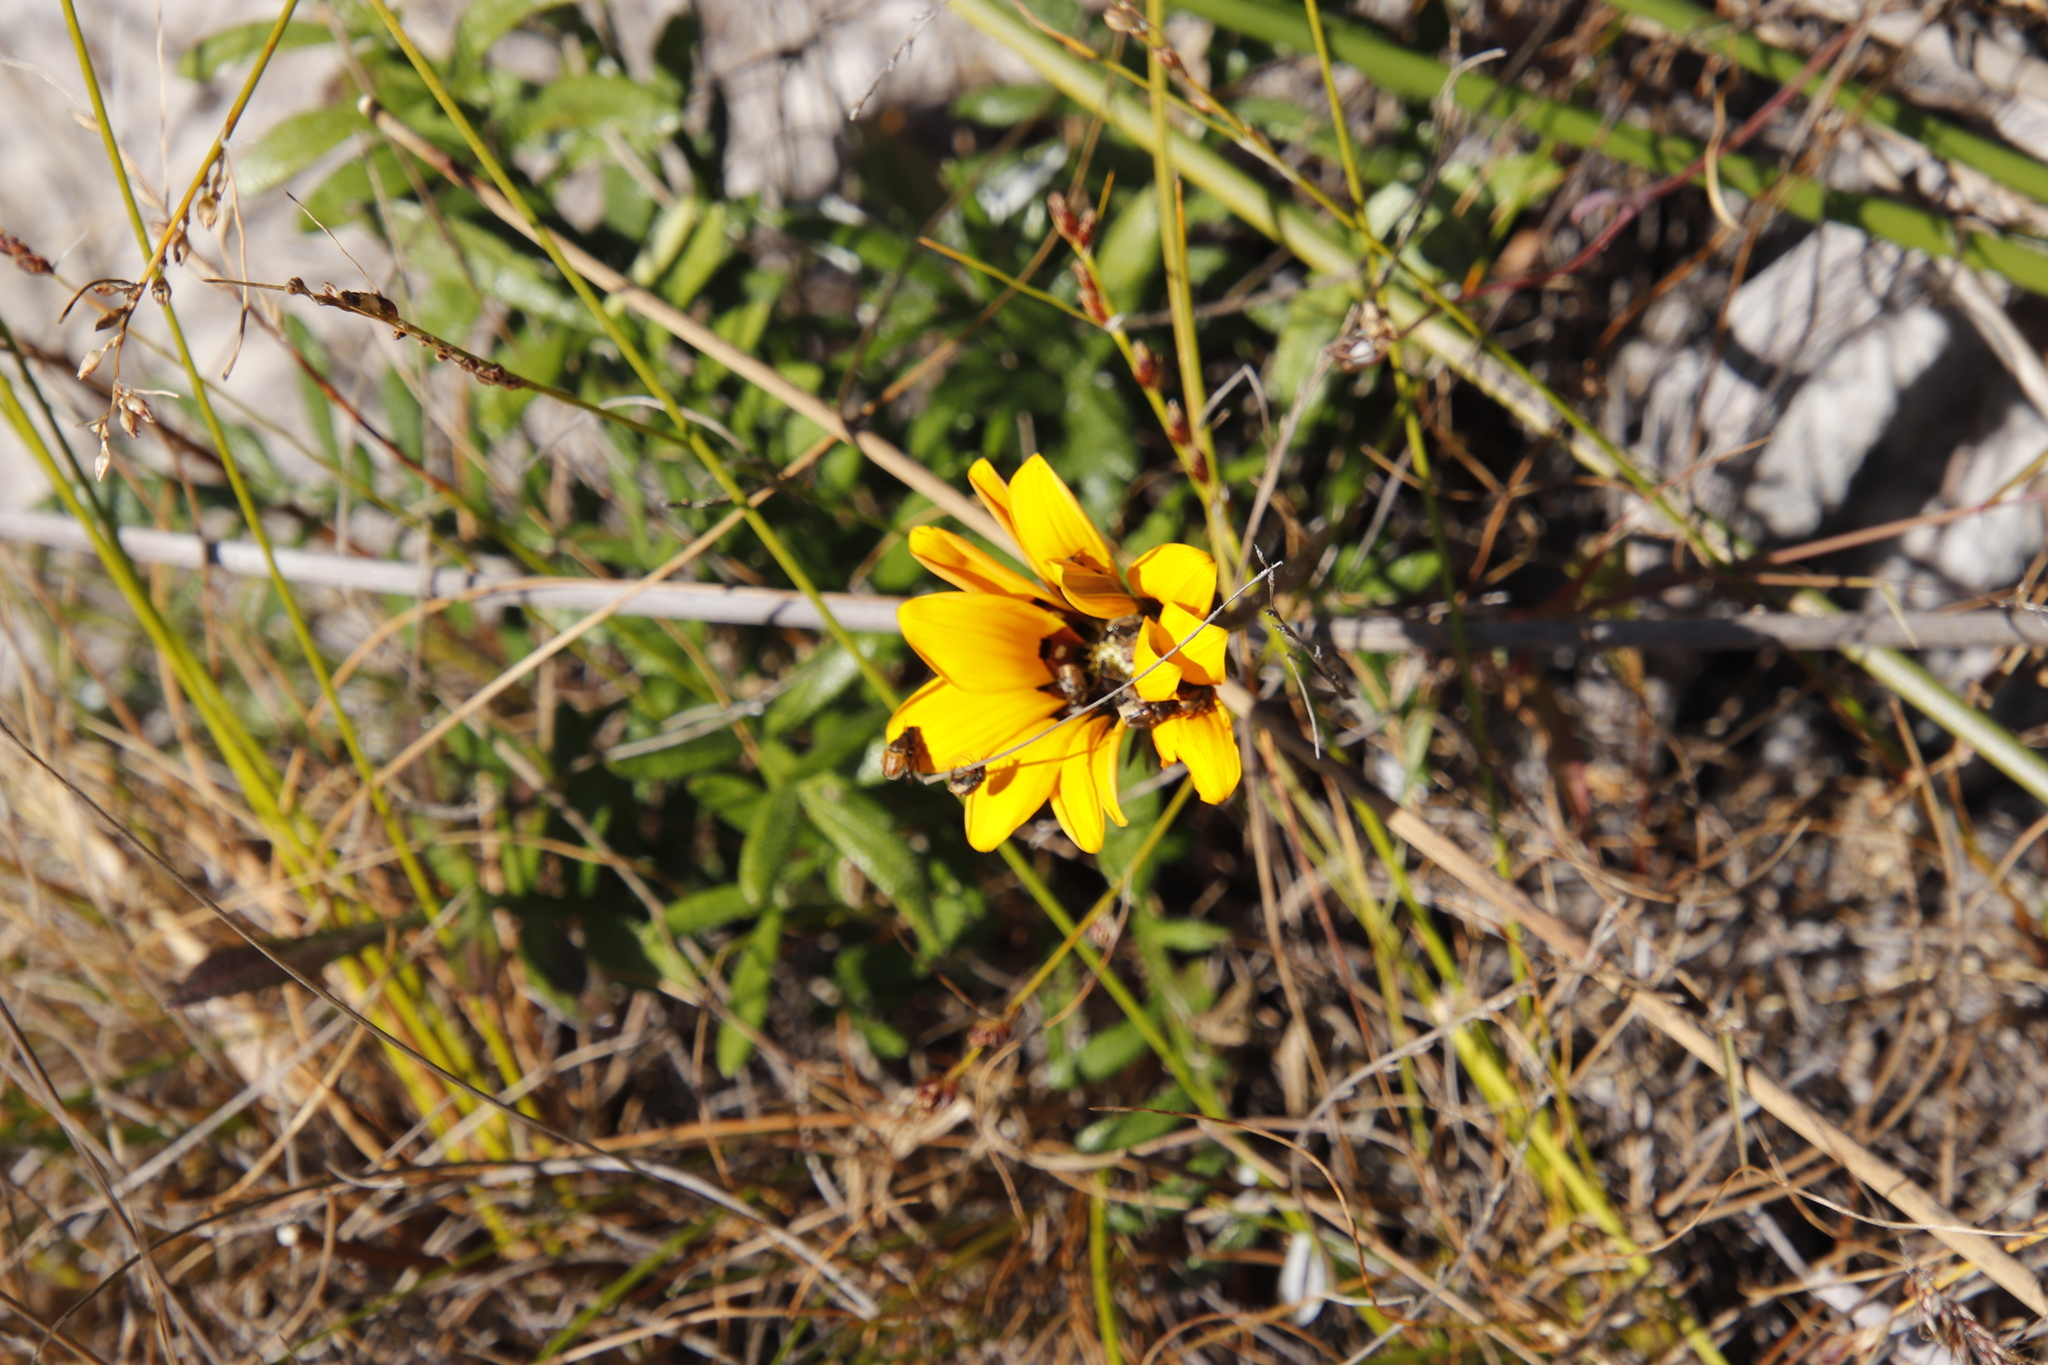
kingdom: Plantae
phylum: Tracheophyta
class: Magnoliopsida
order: Asterales
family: Asteraceae
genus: Gazania
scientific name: Gazania pectinata
